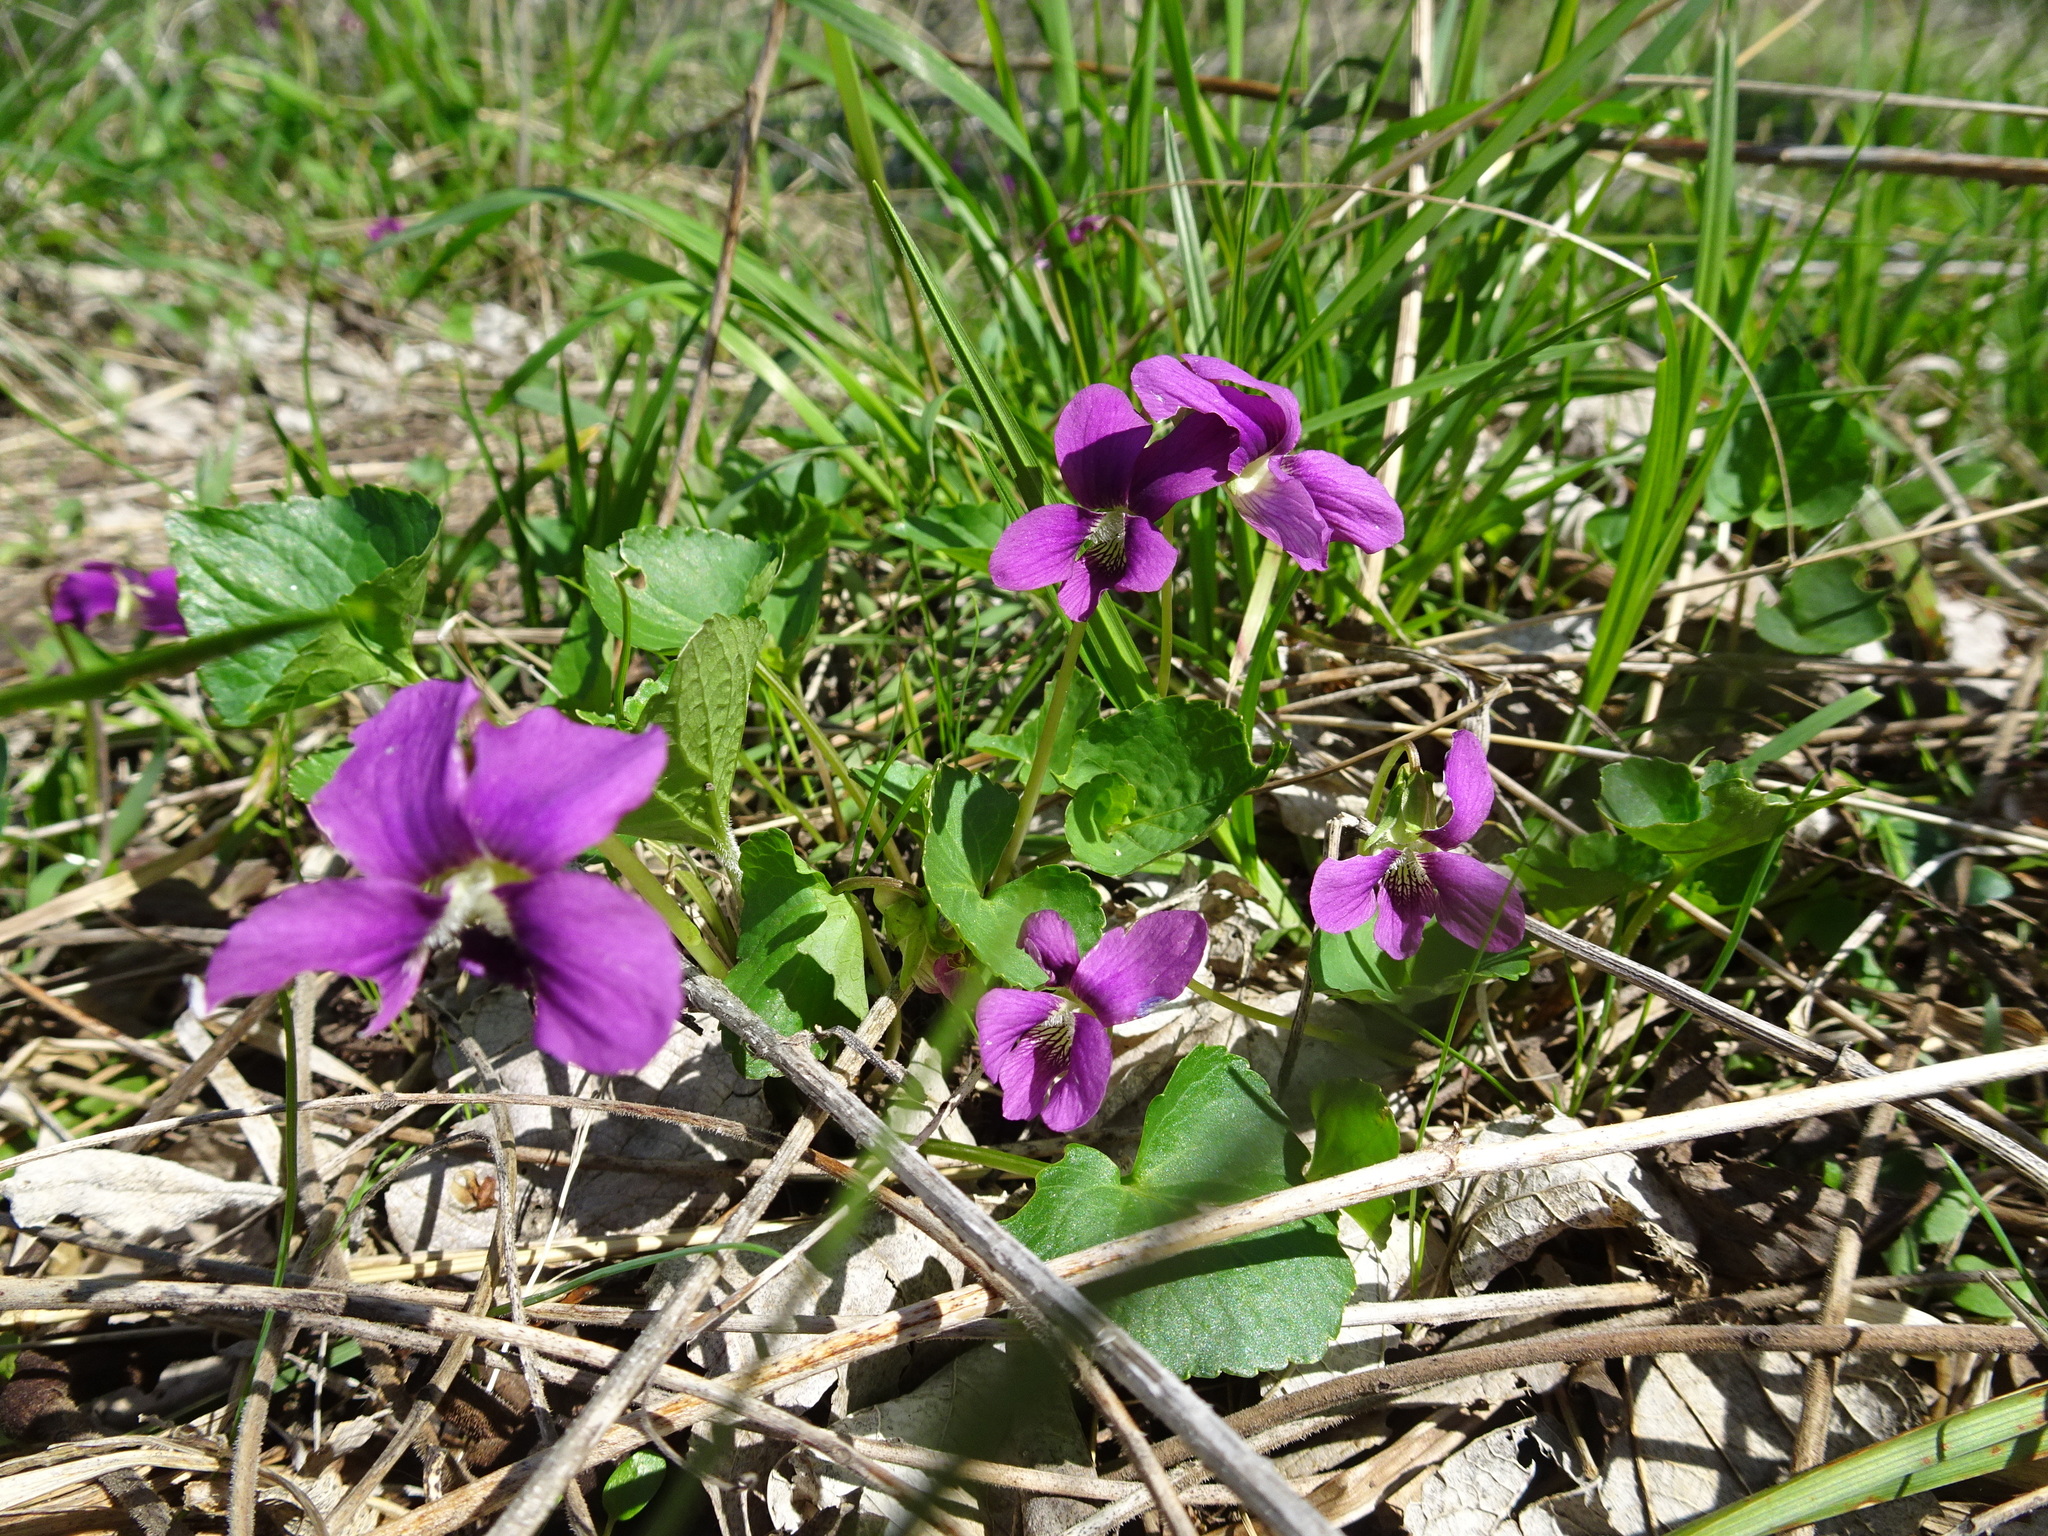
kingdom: Plantae
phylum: Tracheophyta
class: Magnoliopsida
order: Malpighiales
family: Violaceae
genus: Viola
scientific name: Viola sororia
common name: Dooryard violet
